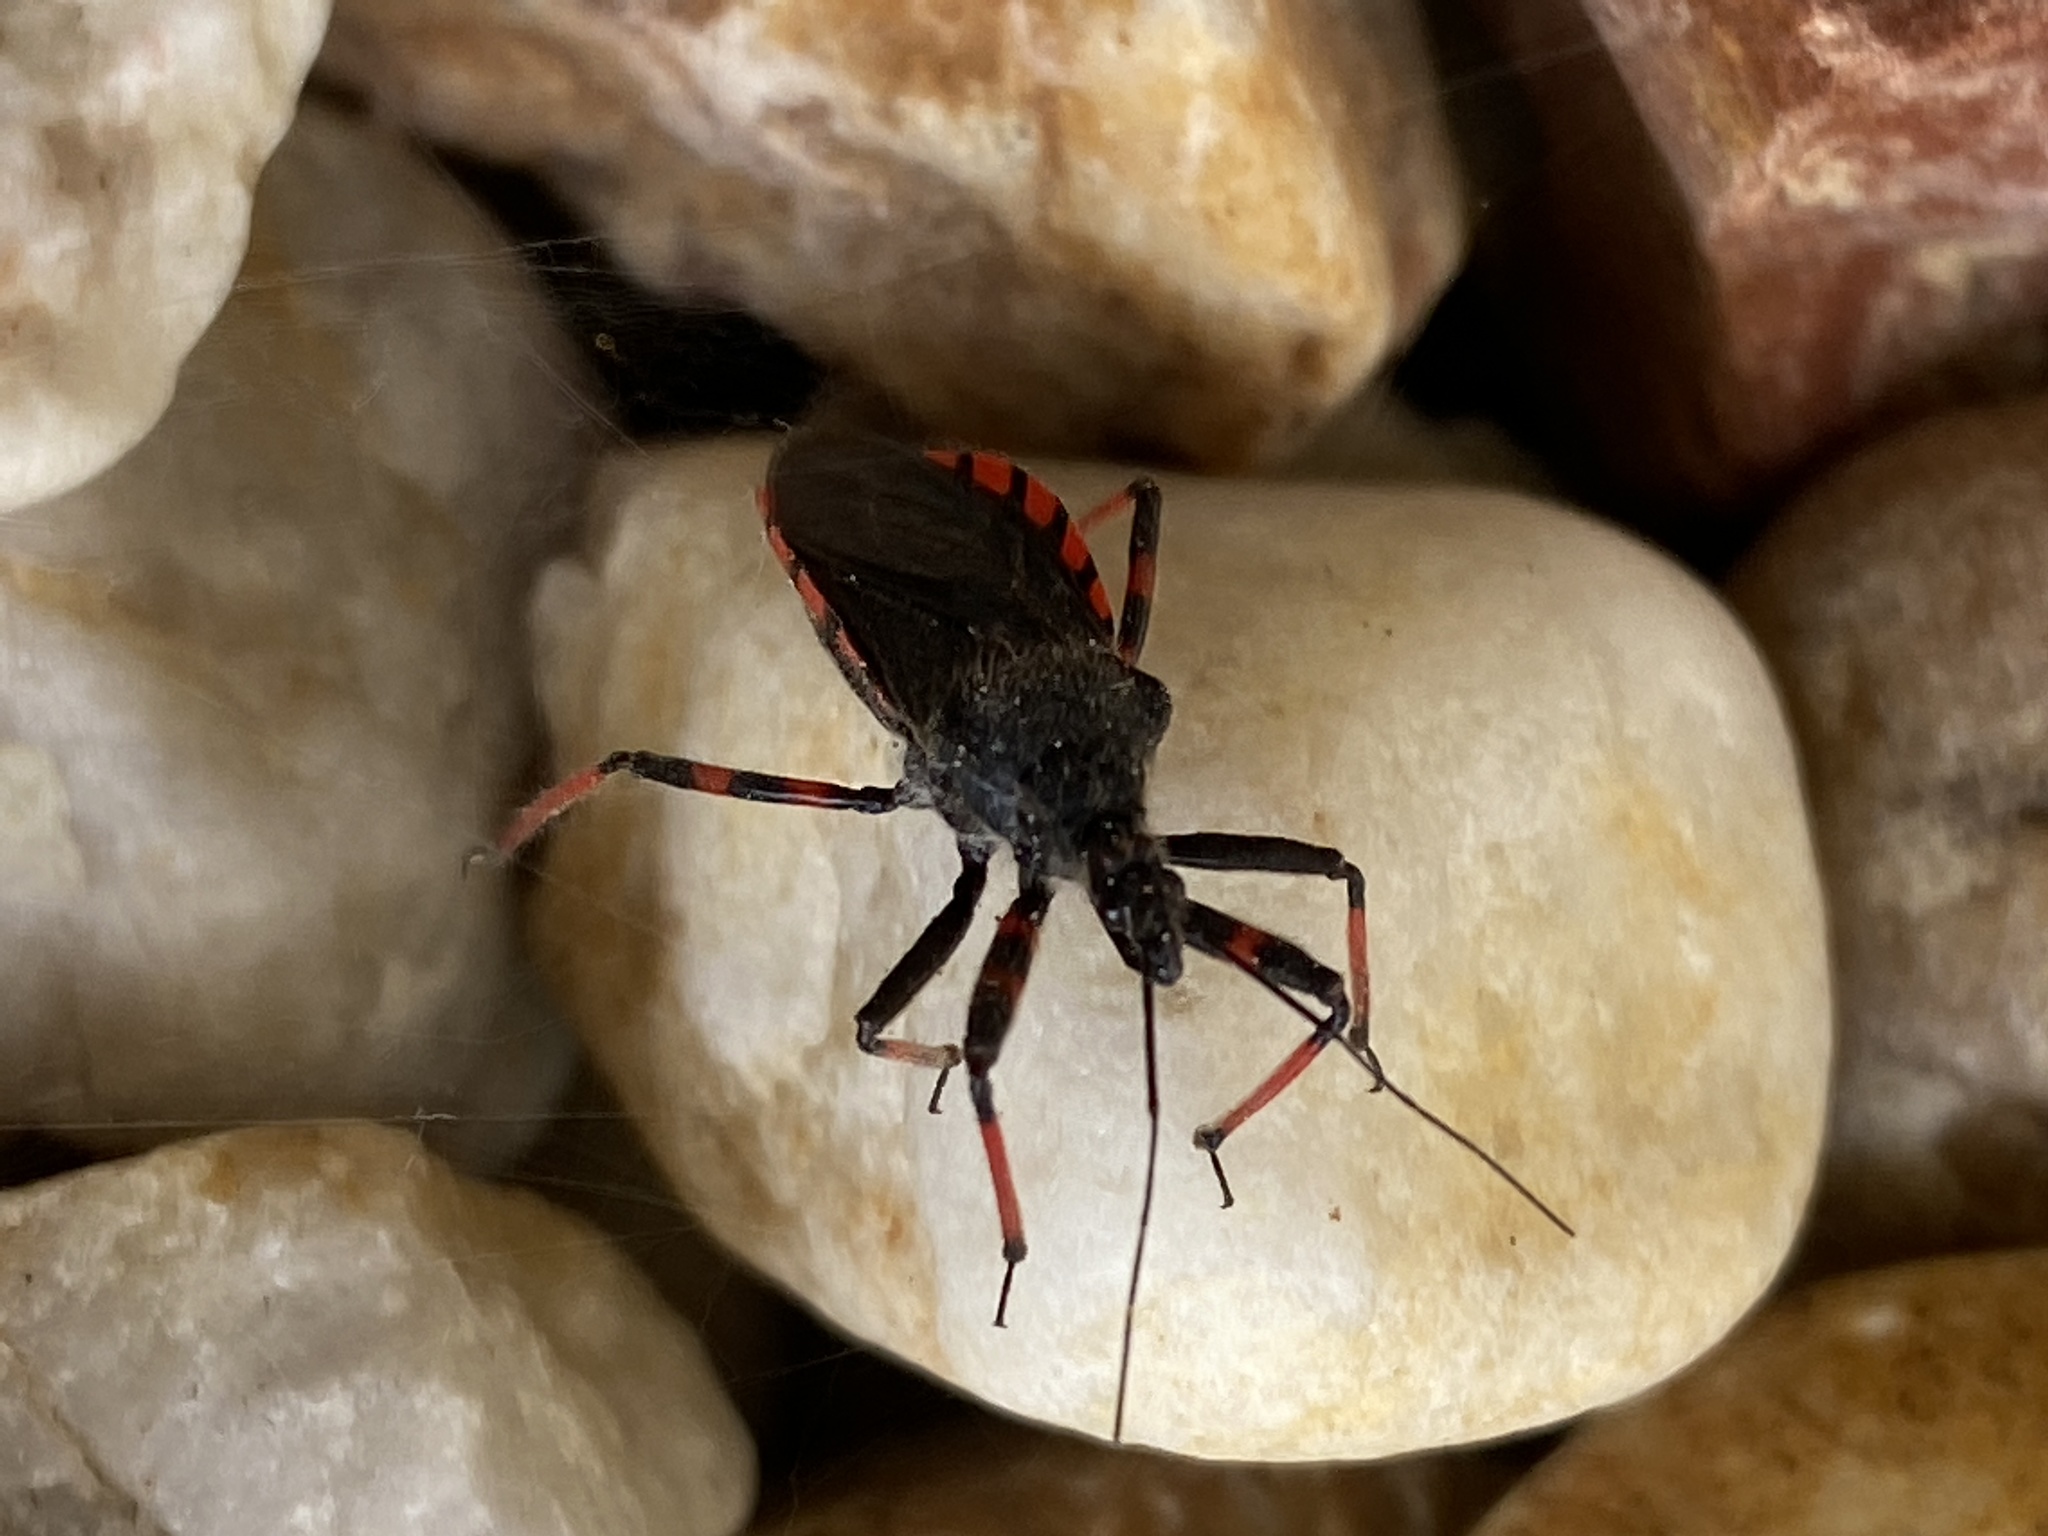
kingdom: Animalia
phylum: Arthropoda
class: Insecta
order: Hemiptera
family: Reduviidae
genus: Rhynocoris
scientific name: Rhynocoris annulatus
